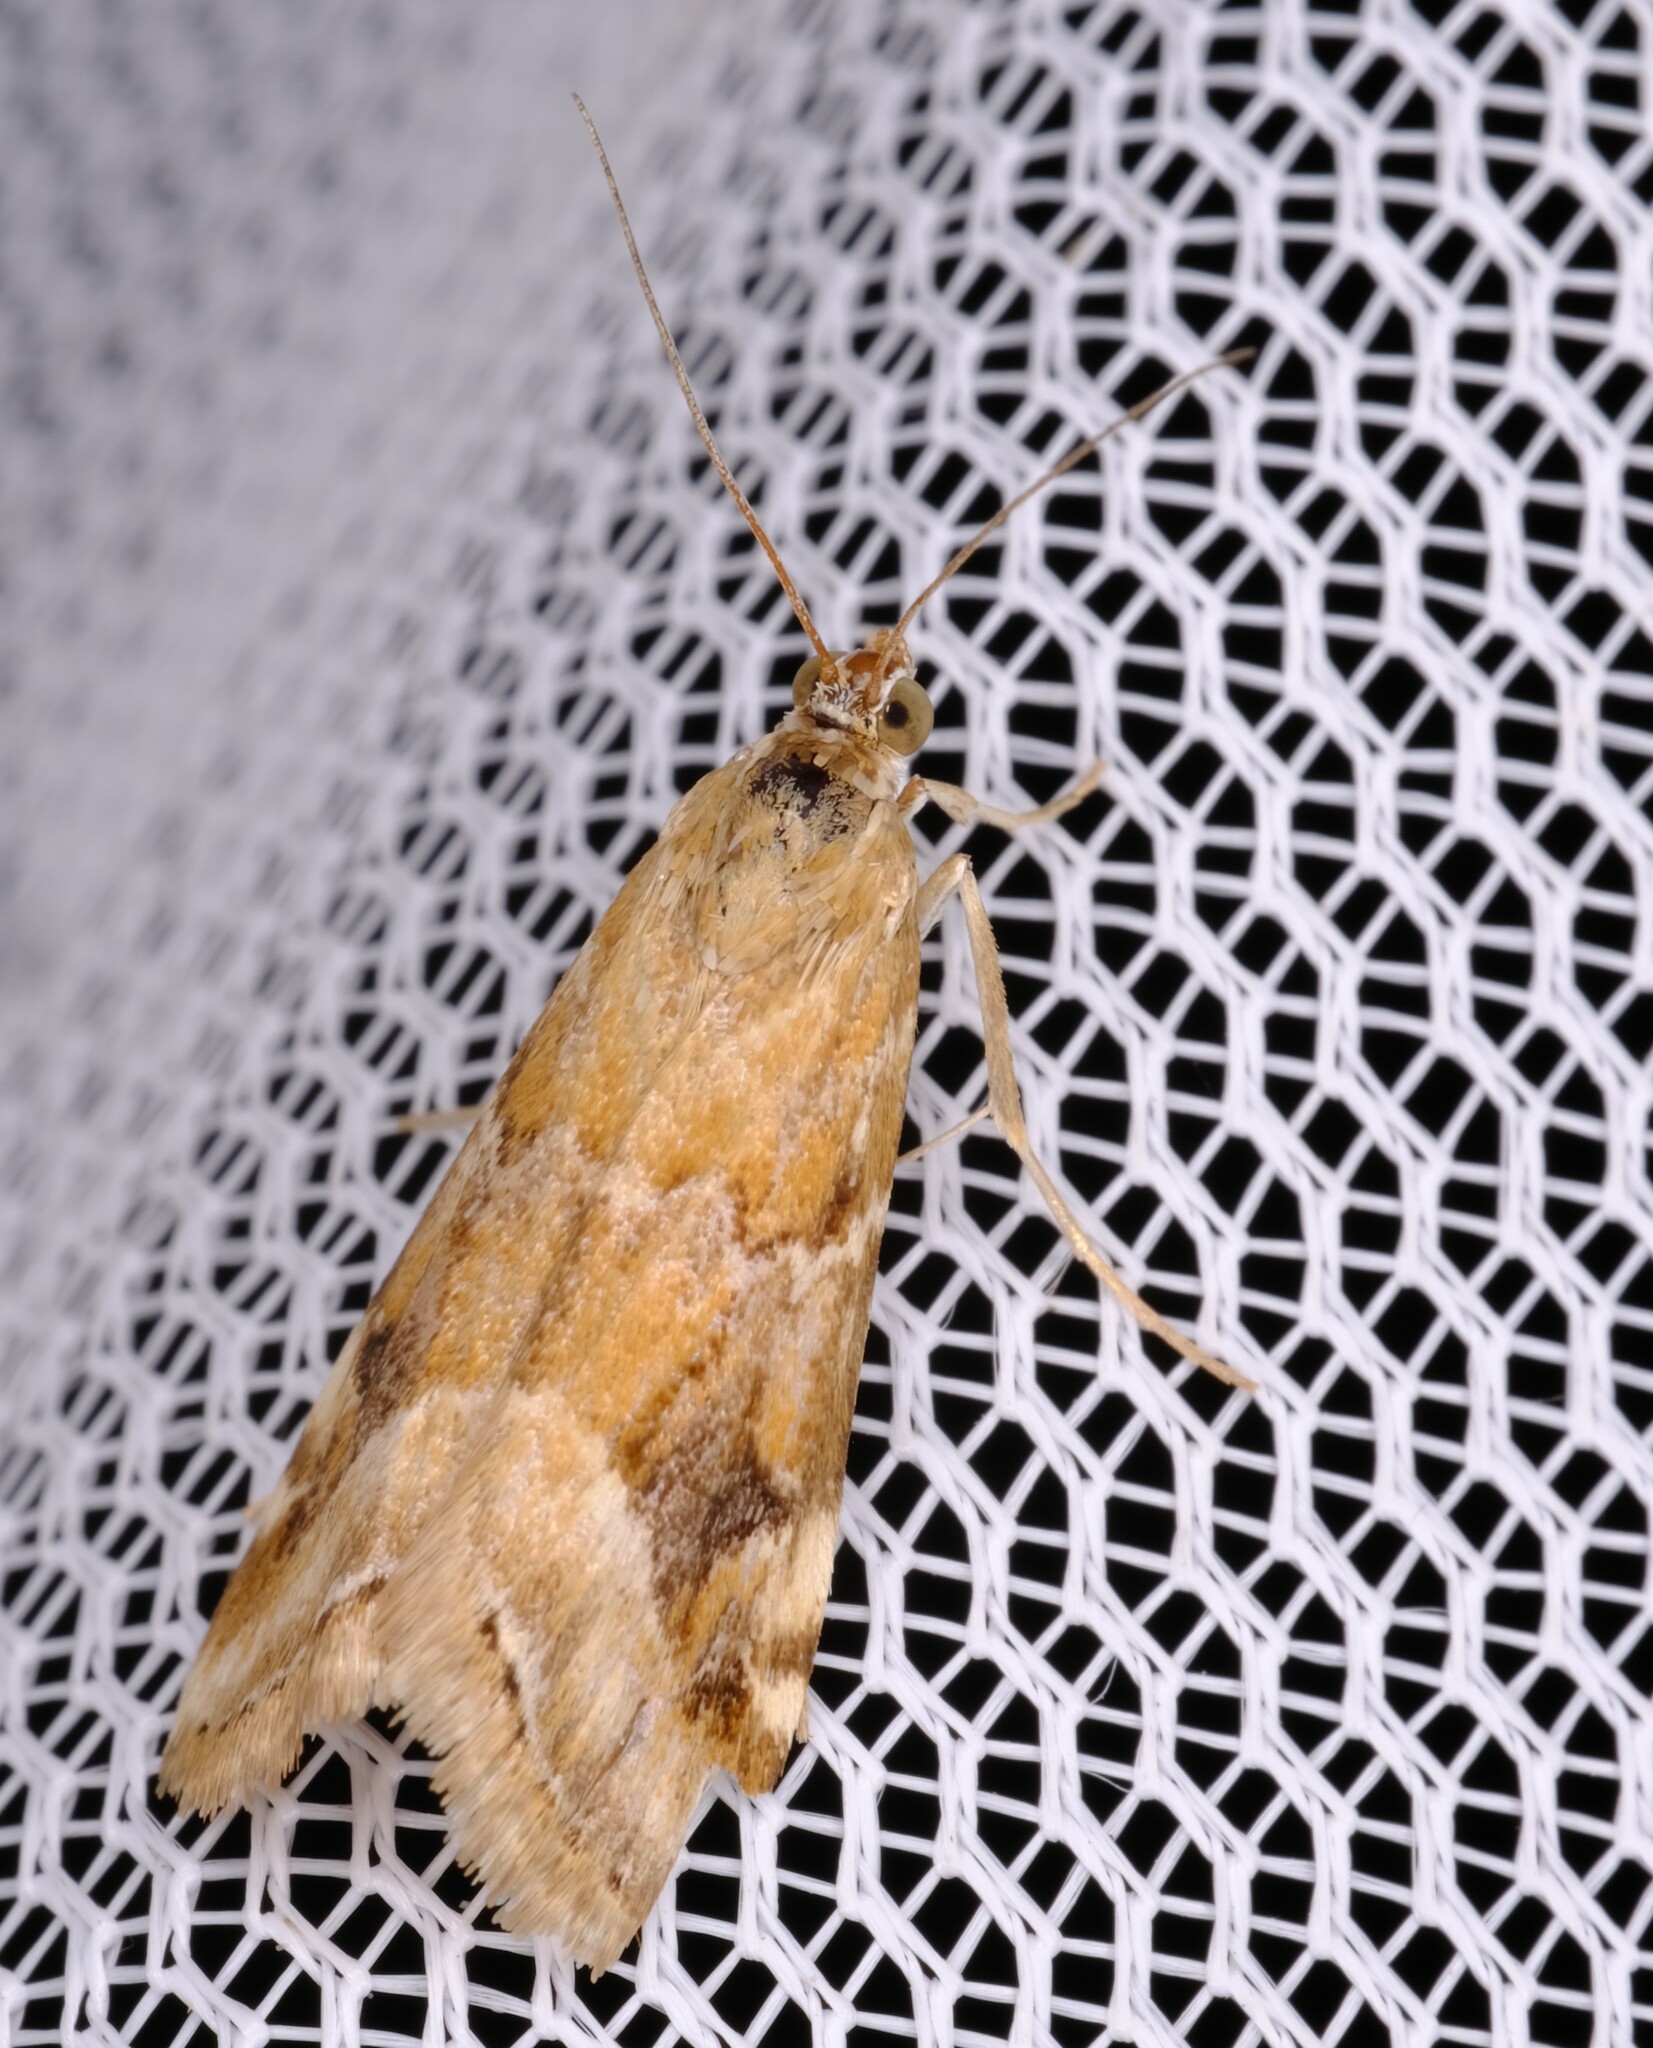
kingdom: Animalia
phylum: Arthropoda
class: Insecta
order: Lepidoptera
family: Crambidae
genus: Hellula
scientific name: Hellula hydralis
